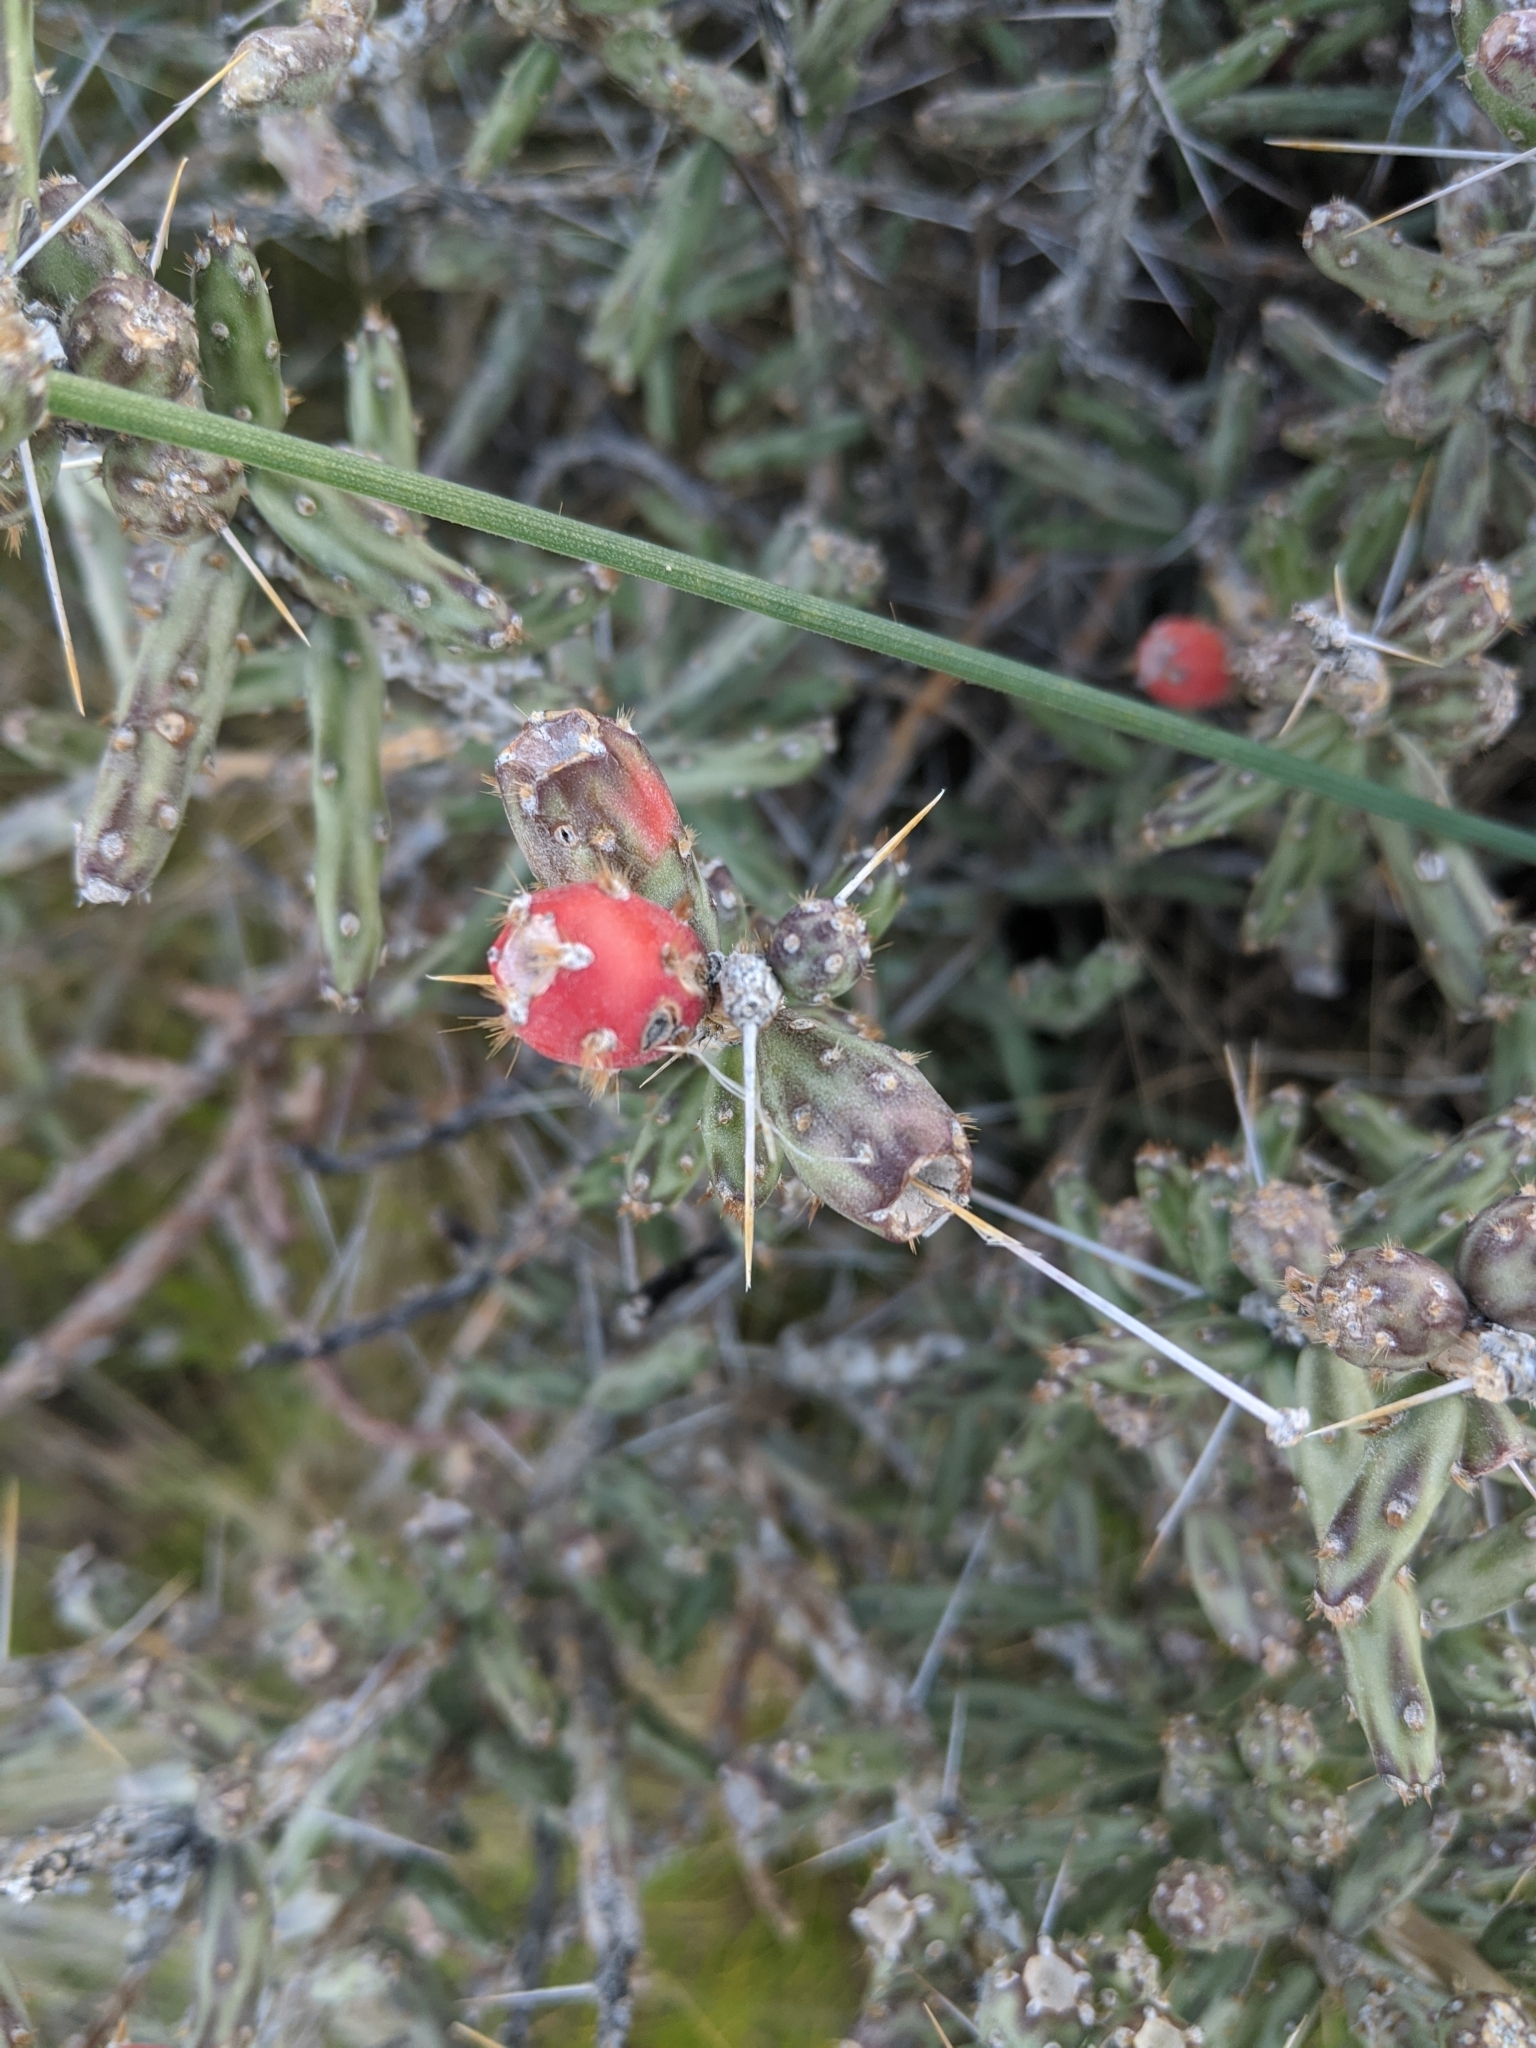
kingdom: Plantae
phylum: Tracheophyta
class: Magnoliopsida
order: Caryophyllales
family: Cactaceae
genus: Cylindropuntia
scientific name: Cylindropuntia leptocaulis
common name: Christmas cactus
